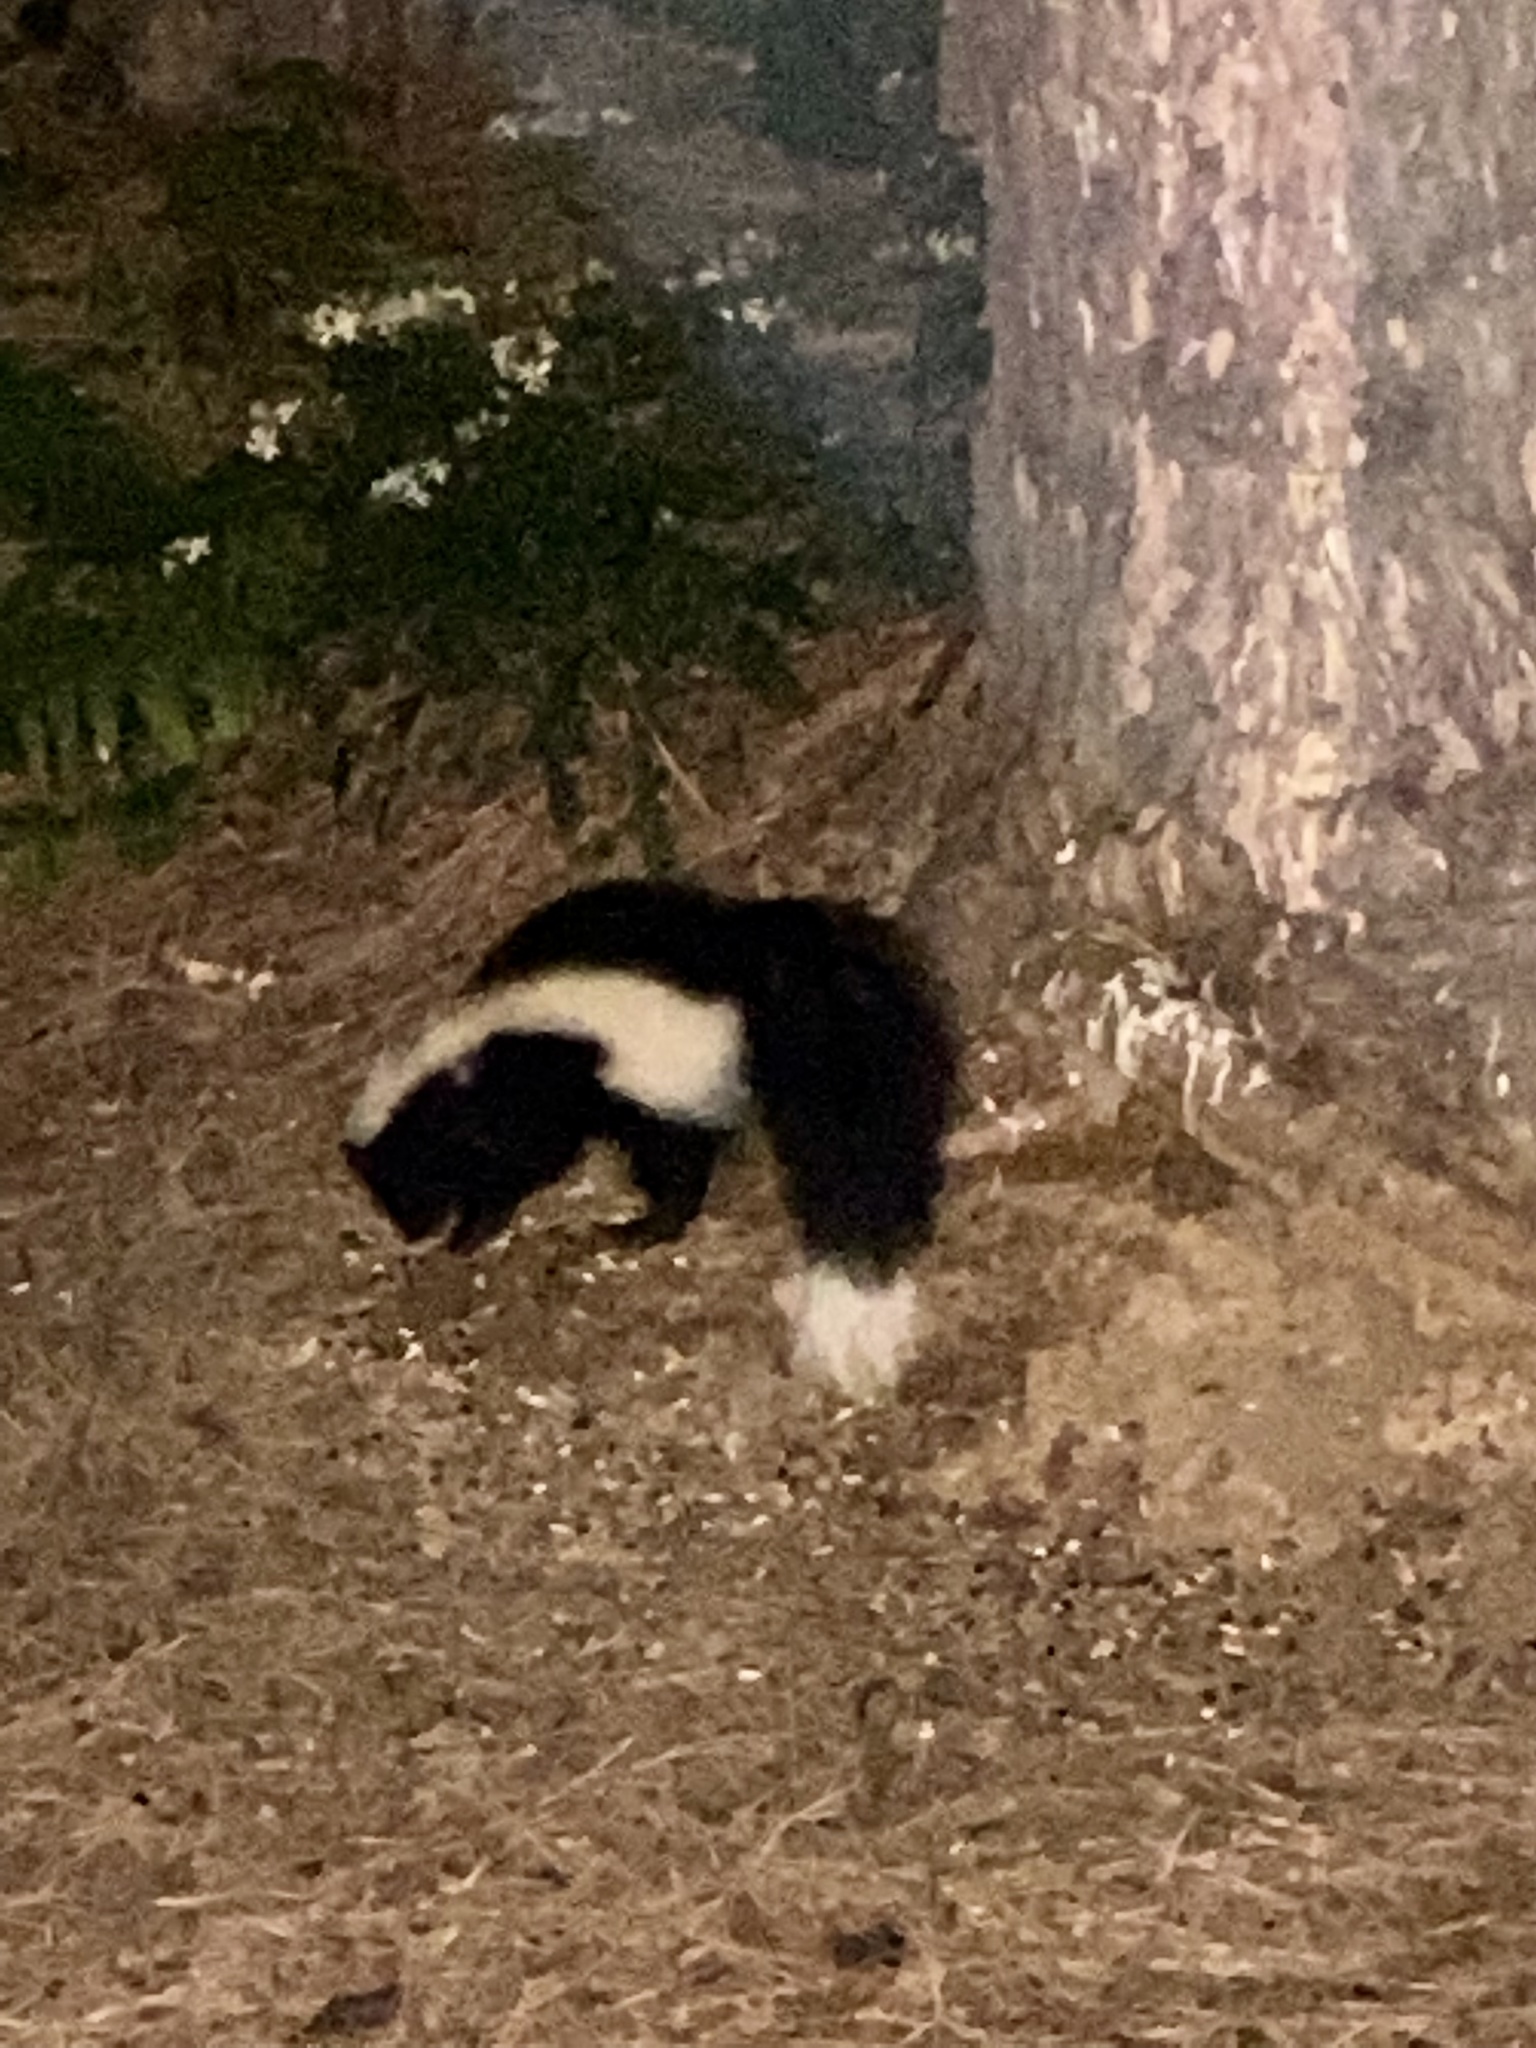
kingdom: Animalia
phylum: Chordata
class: Mammalia
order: Carnivora
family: Mephitidae
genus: Mephitis
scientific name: Mephitis mephitis
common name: Striped skunk
